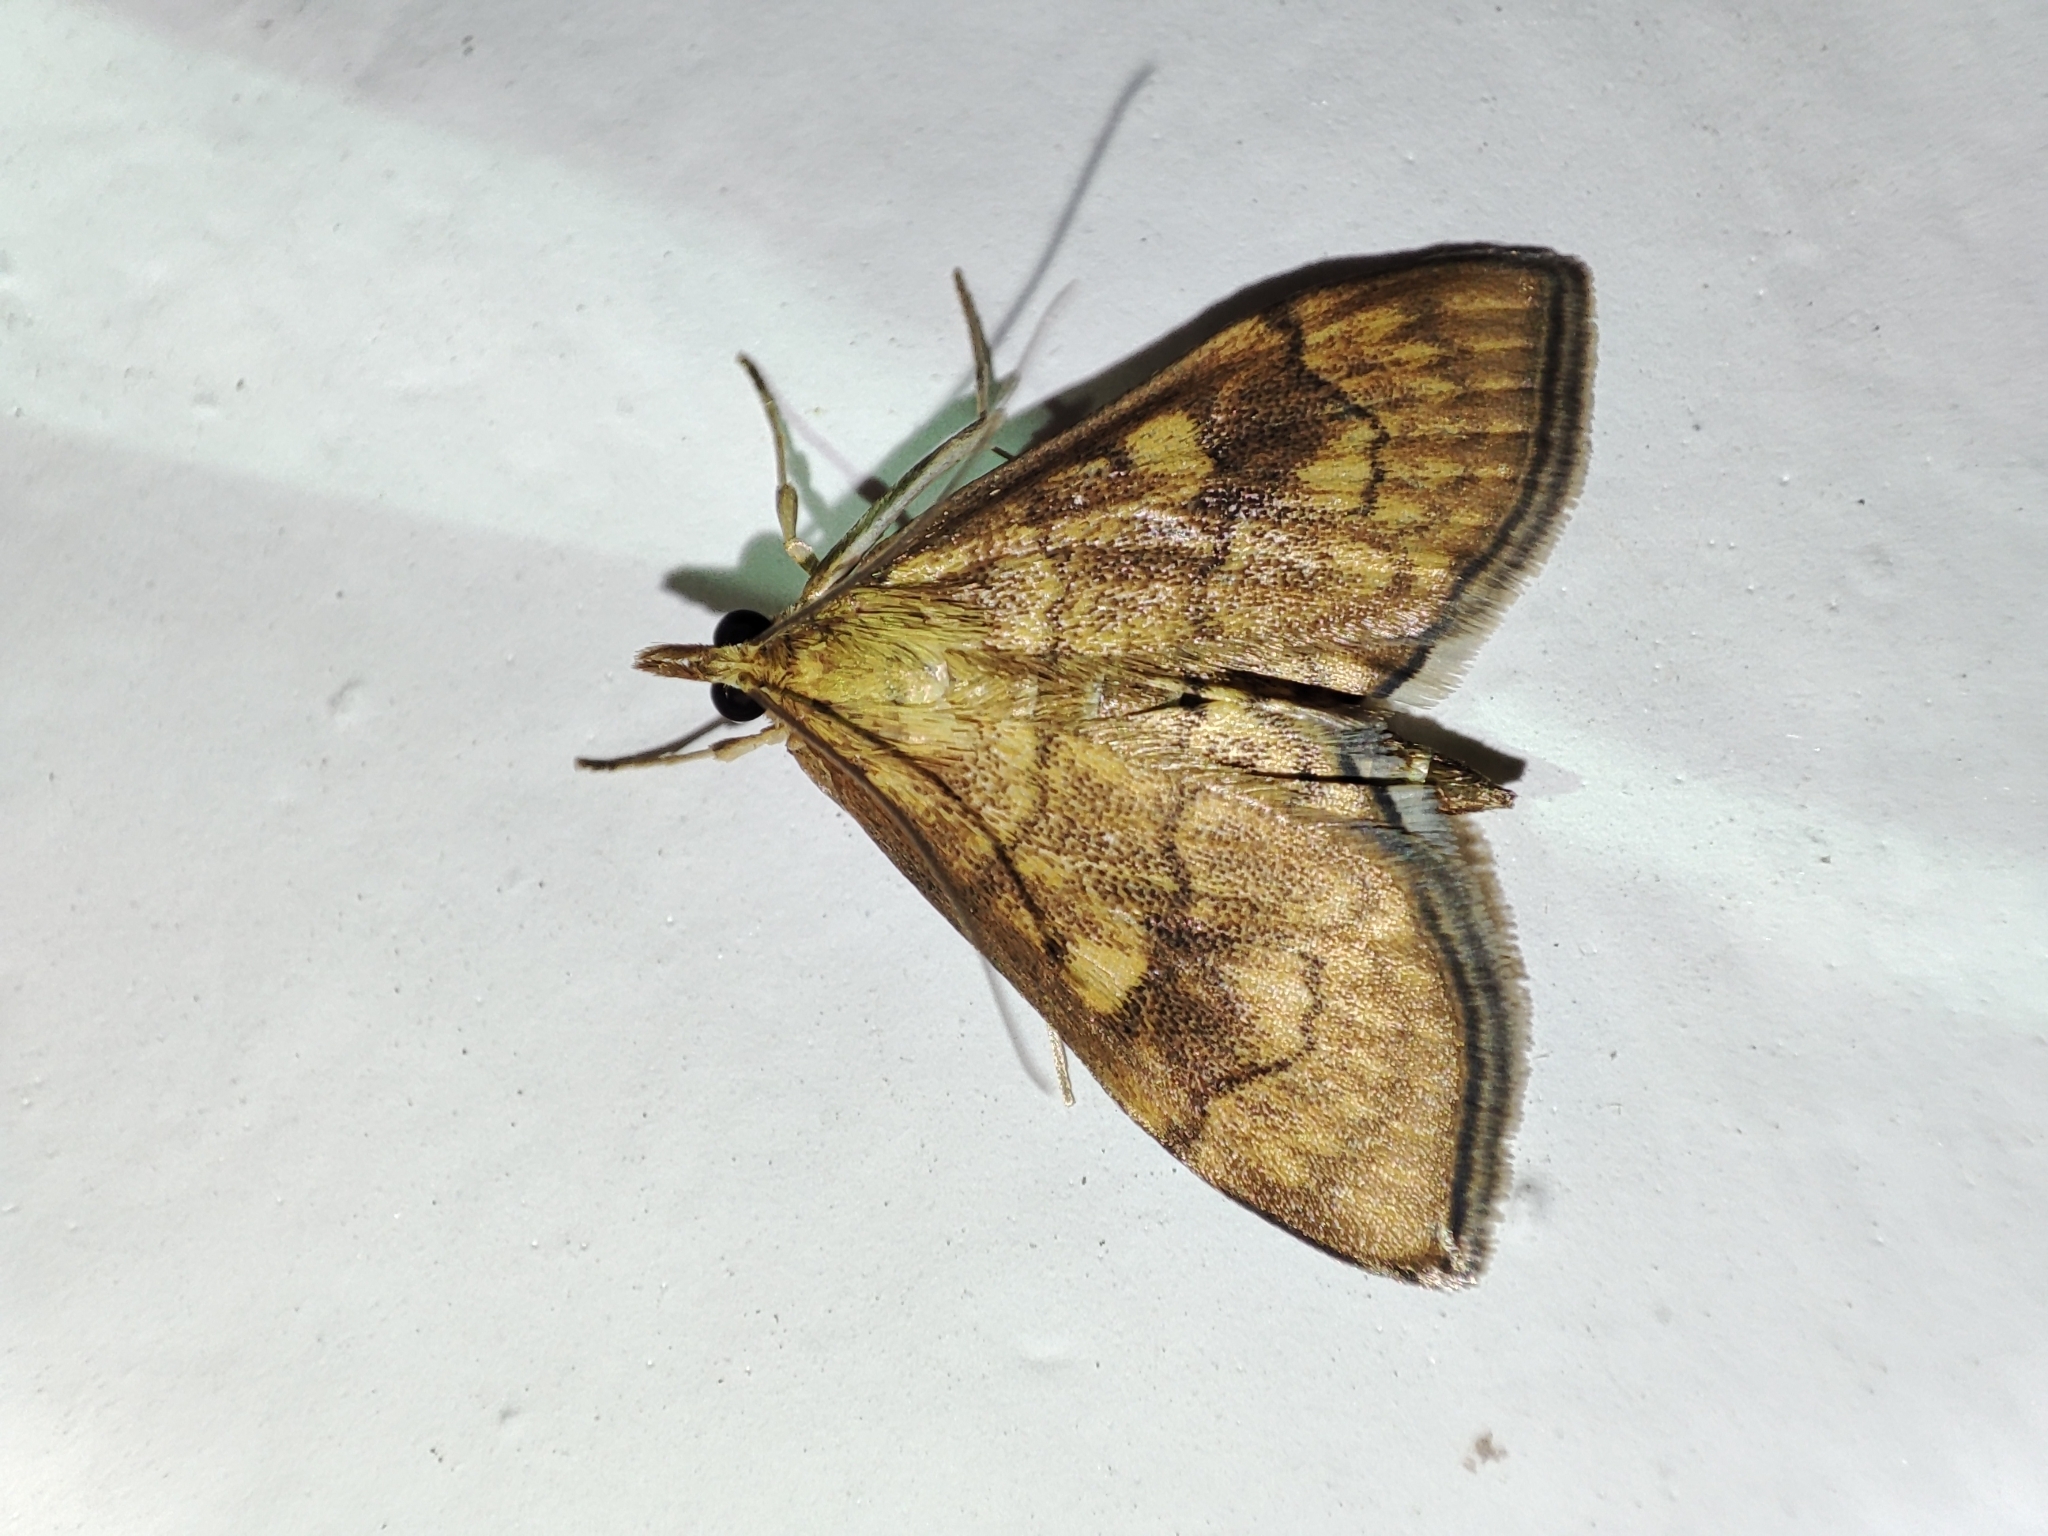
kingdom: Animalia
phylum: Arthropoda
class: Insecta
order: Lepidoptera
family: Crambidae
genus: Anania
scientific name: Anania verbascalis
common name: Golden pearl
